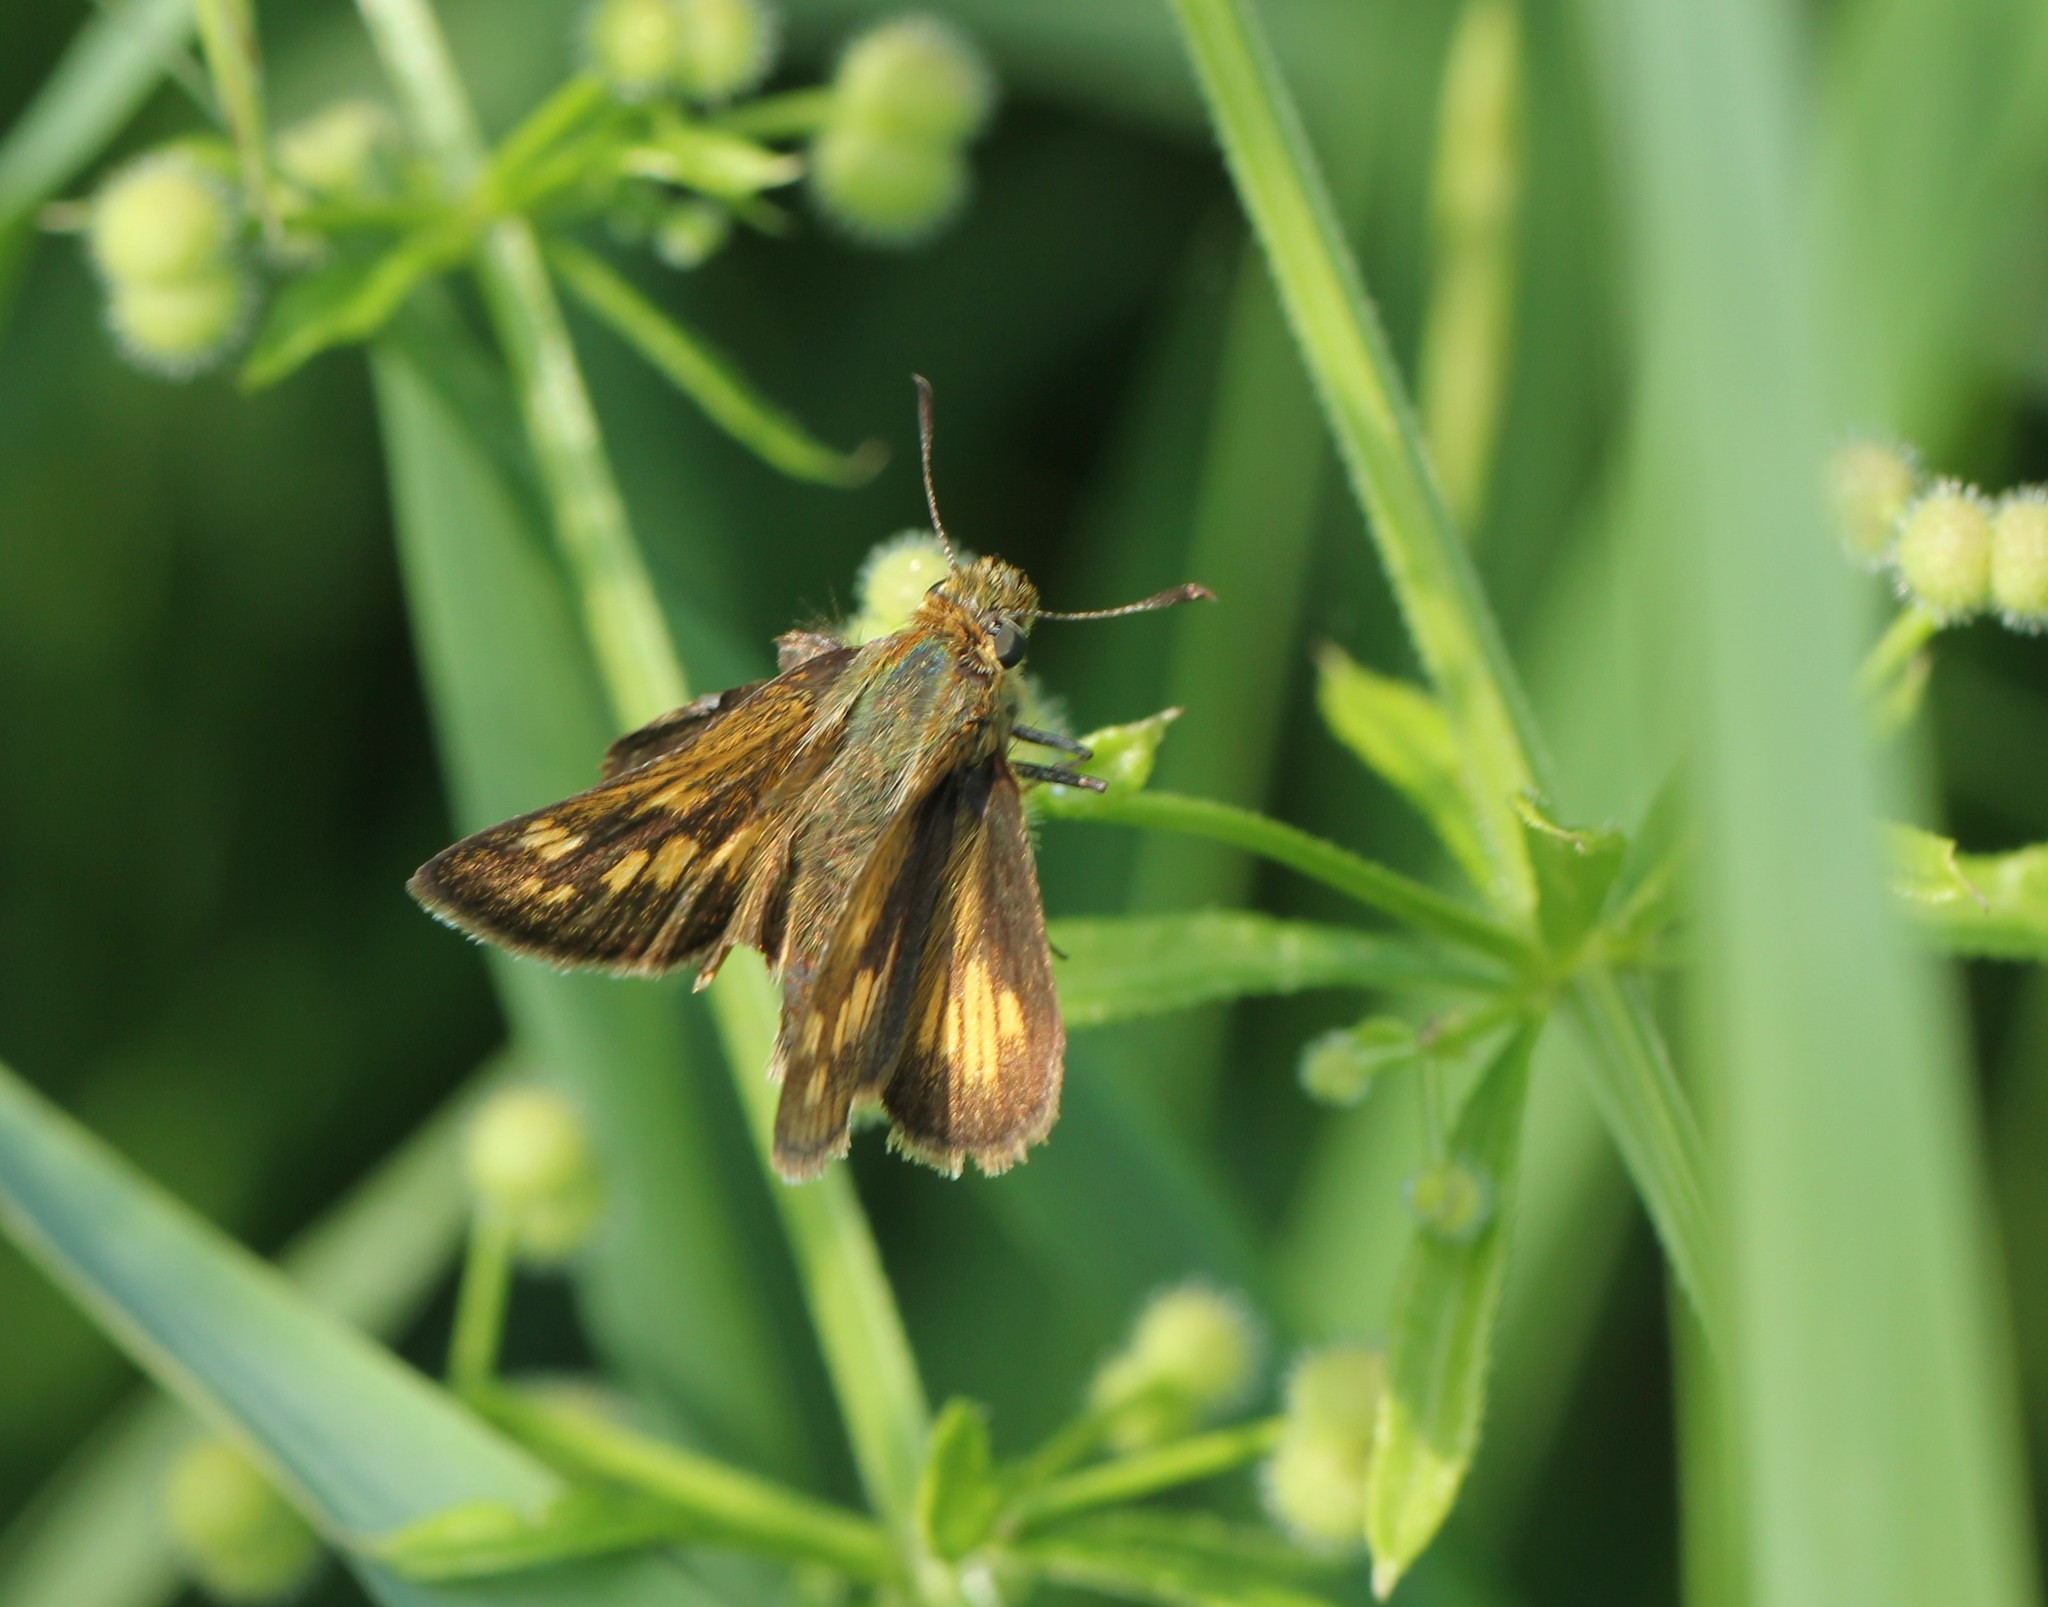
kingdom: Animalia
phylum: Arthropoda
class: Insecta
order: Lepidoptera
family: Hesperiidae
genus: Polites
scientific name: Polites coras
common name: Peck's skipper
